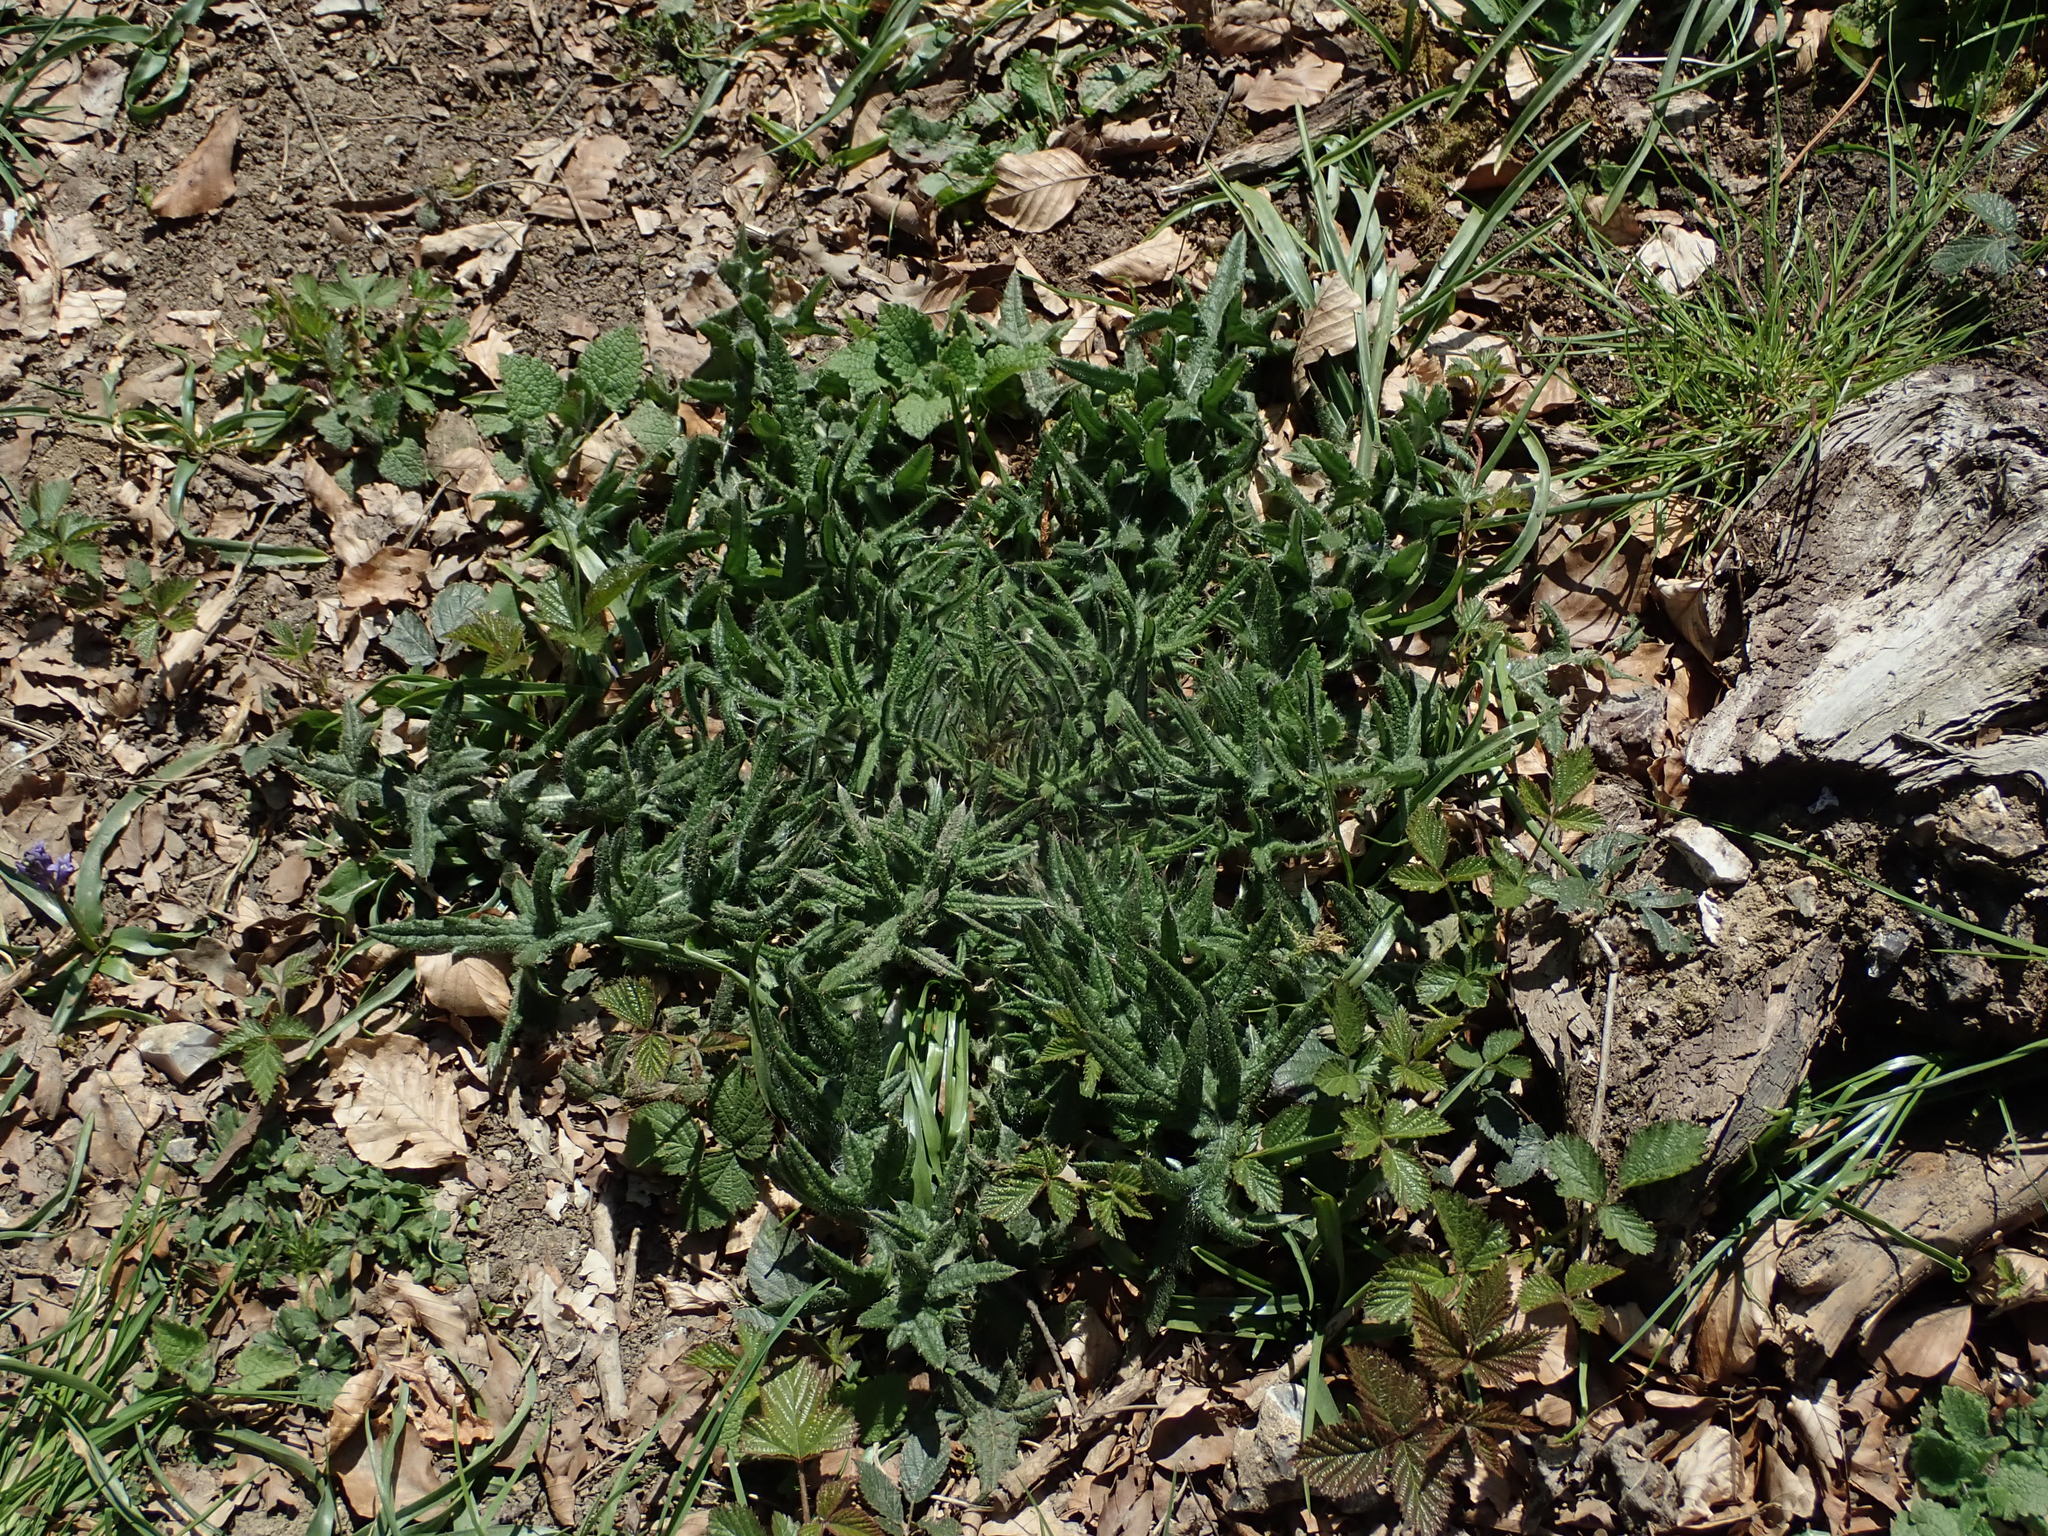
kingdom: Plantae
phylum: Tracheophyta
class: Magnoliopsida
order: Asterales
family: Asteraceae
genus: Cirsium
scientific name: Cirsium vulgare
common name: Bull thistle
